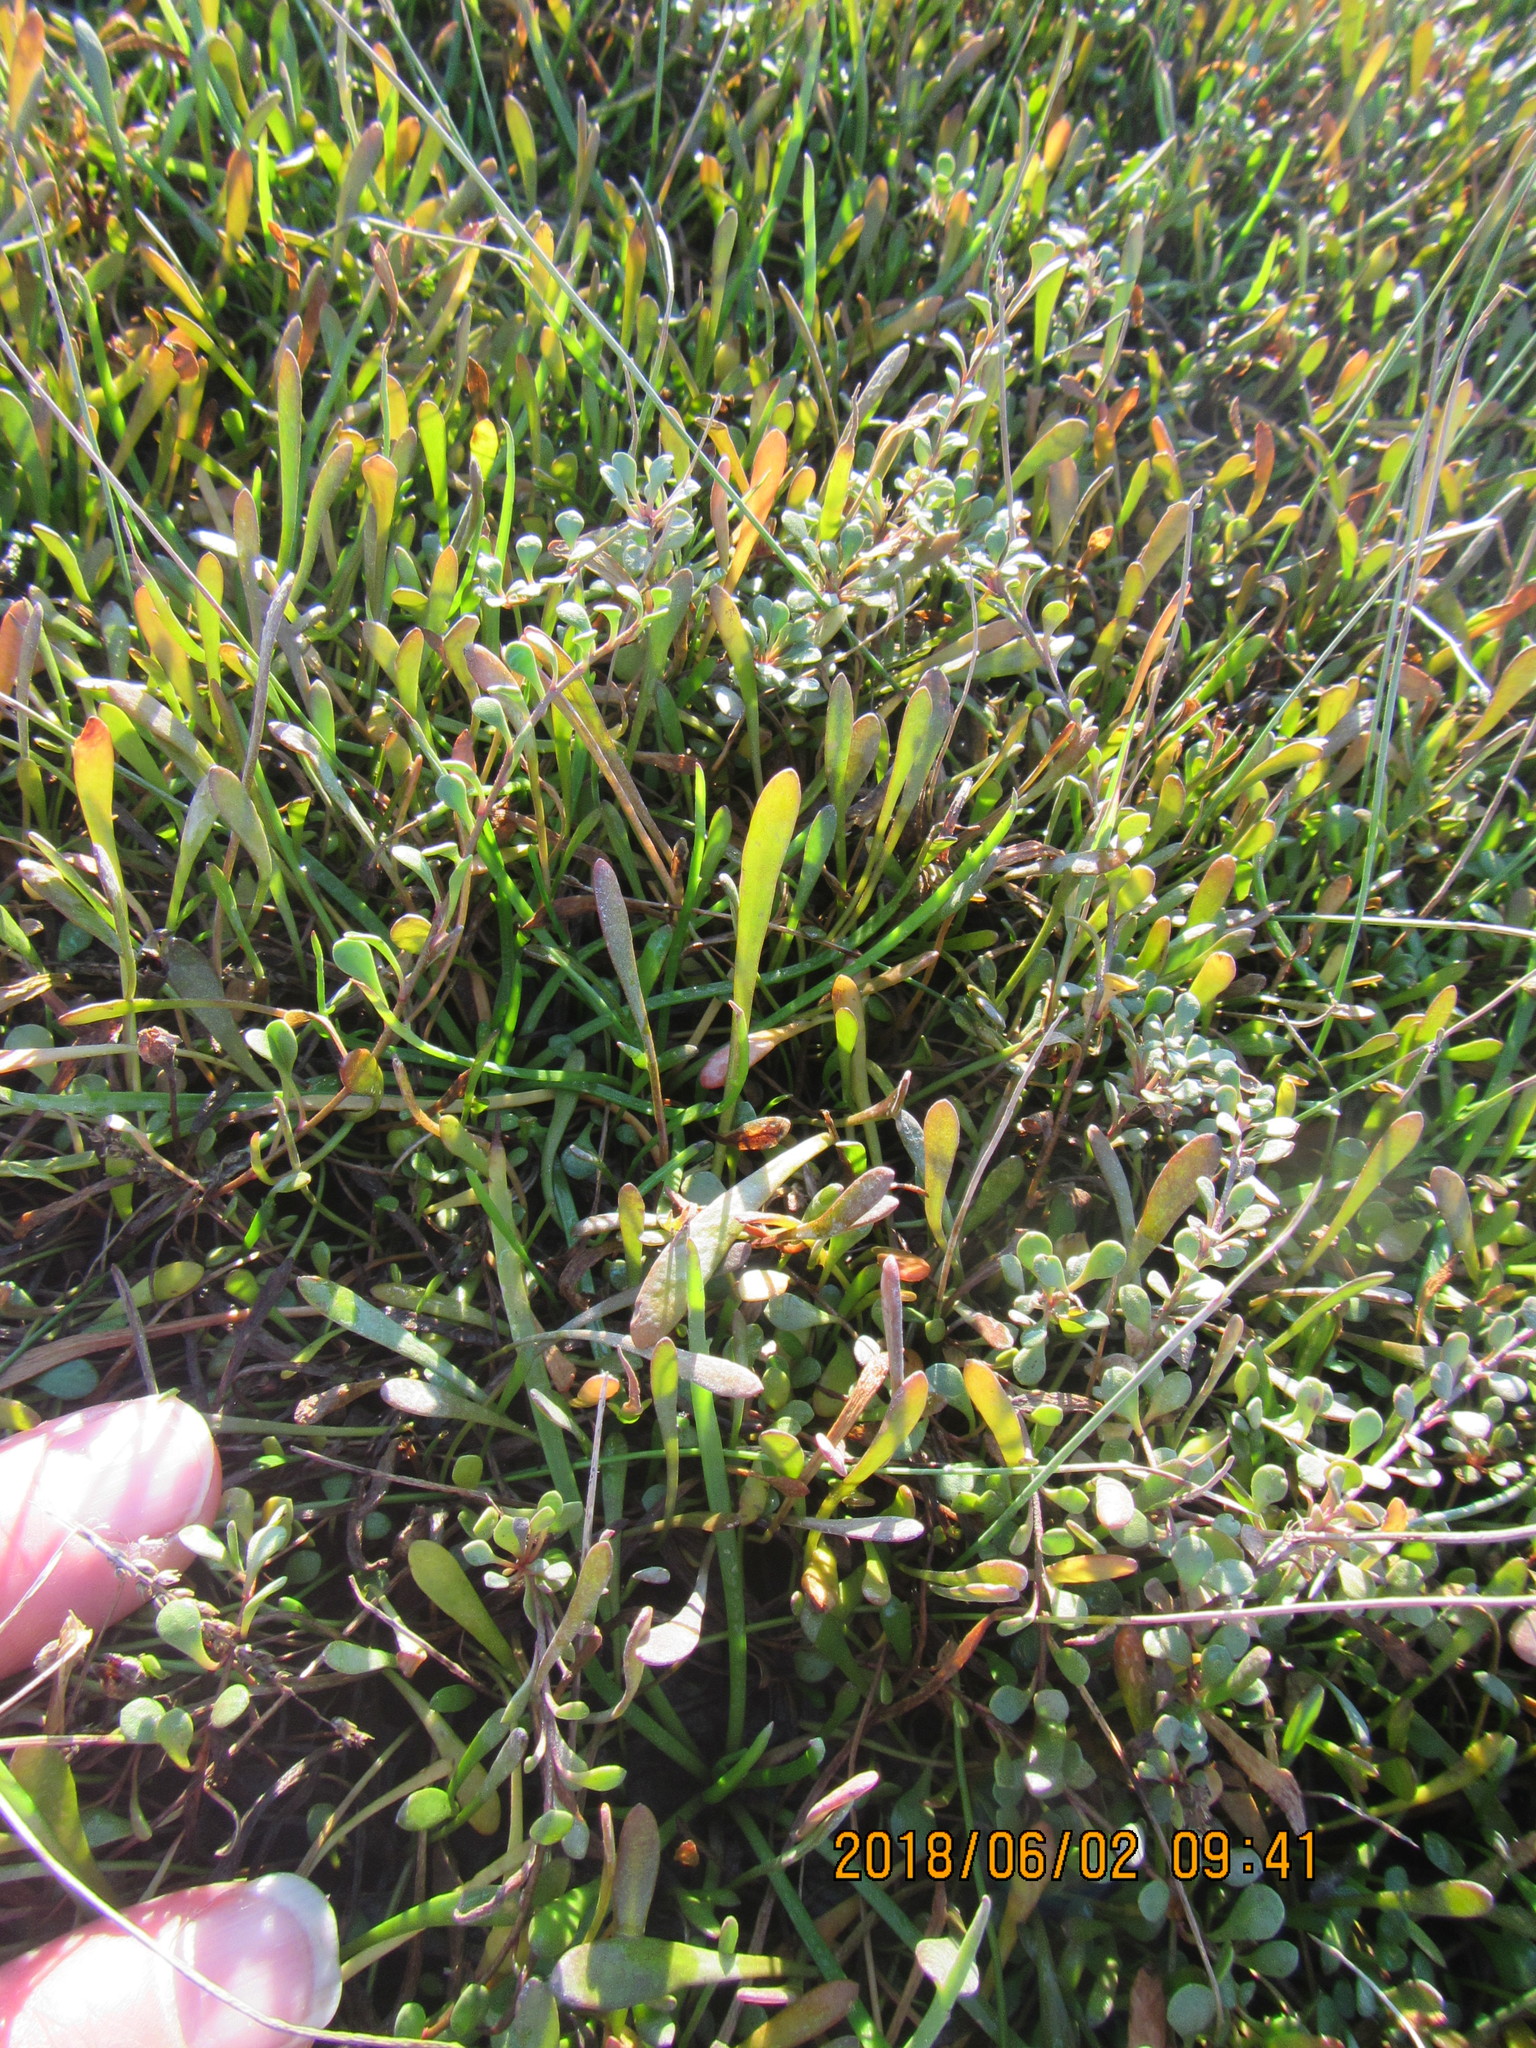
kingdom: Plantae
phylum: Tracheophyta
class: Magnoliopsida
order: Asterales
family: Goodeniaceae
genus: Goodenia
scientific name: Goodenia radicans
